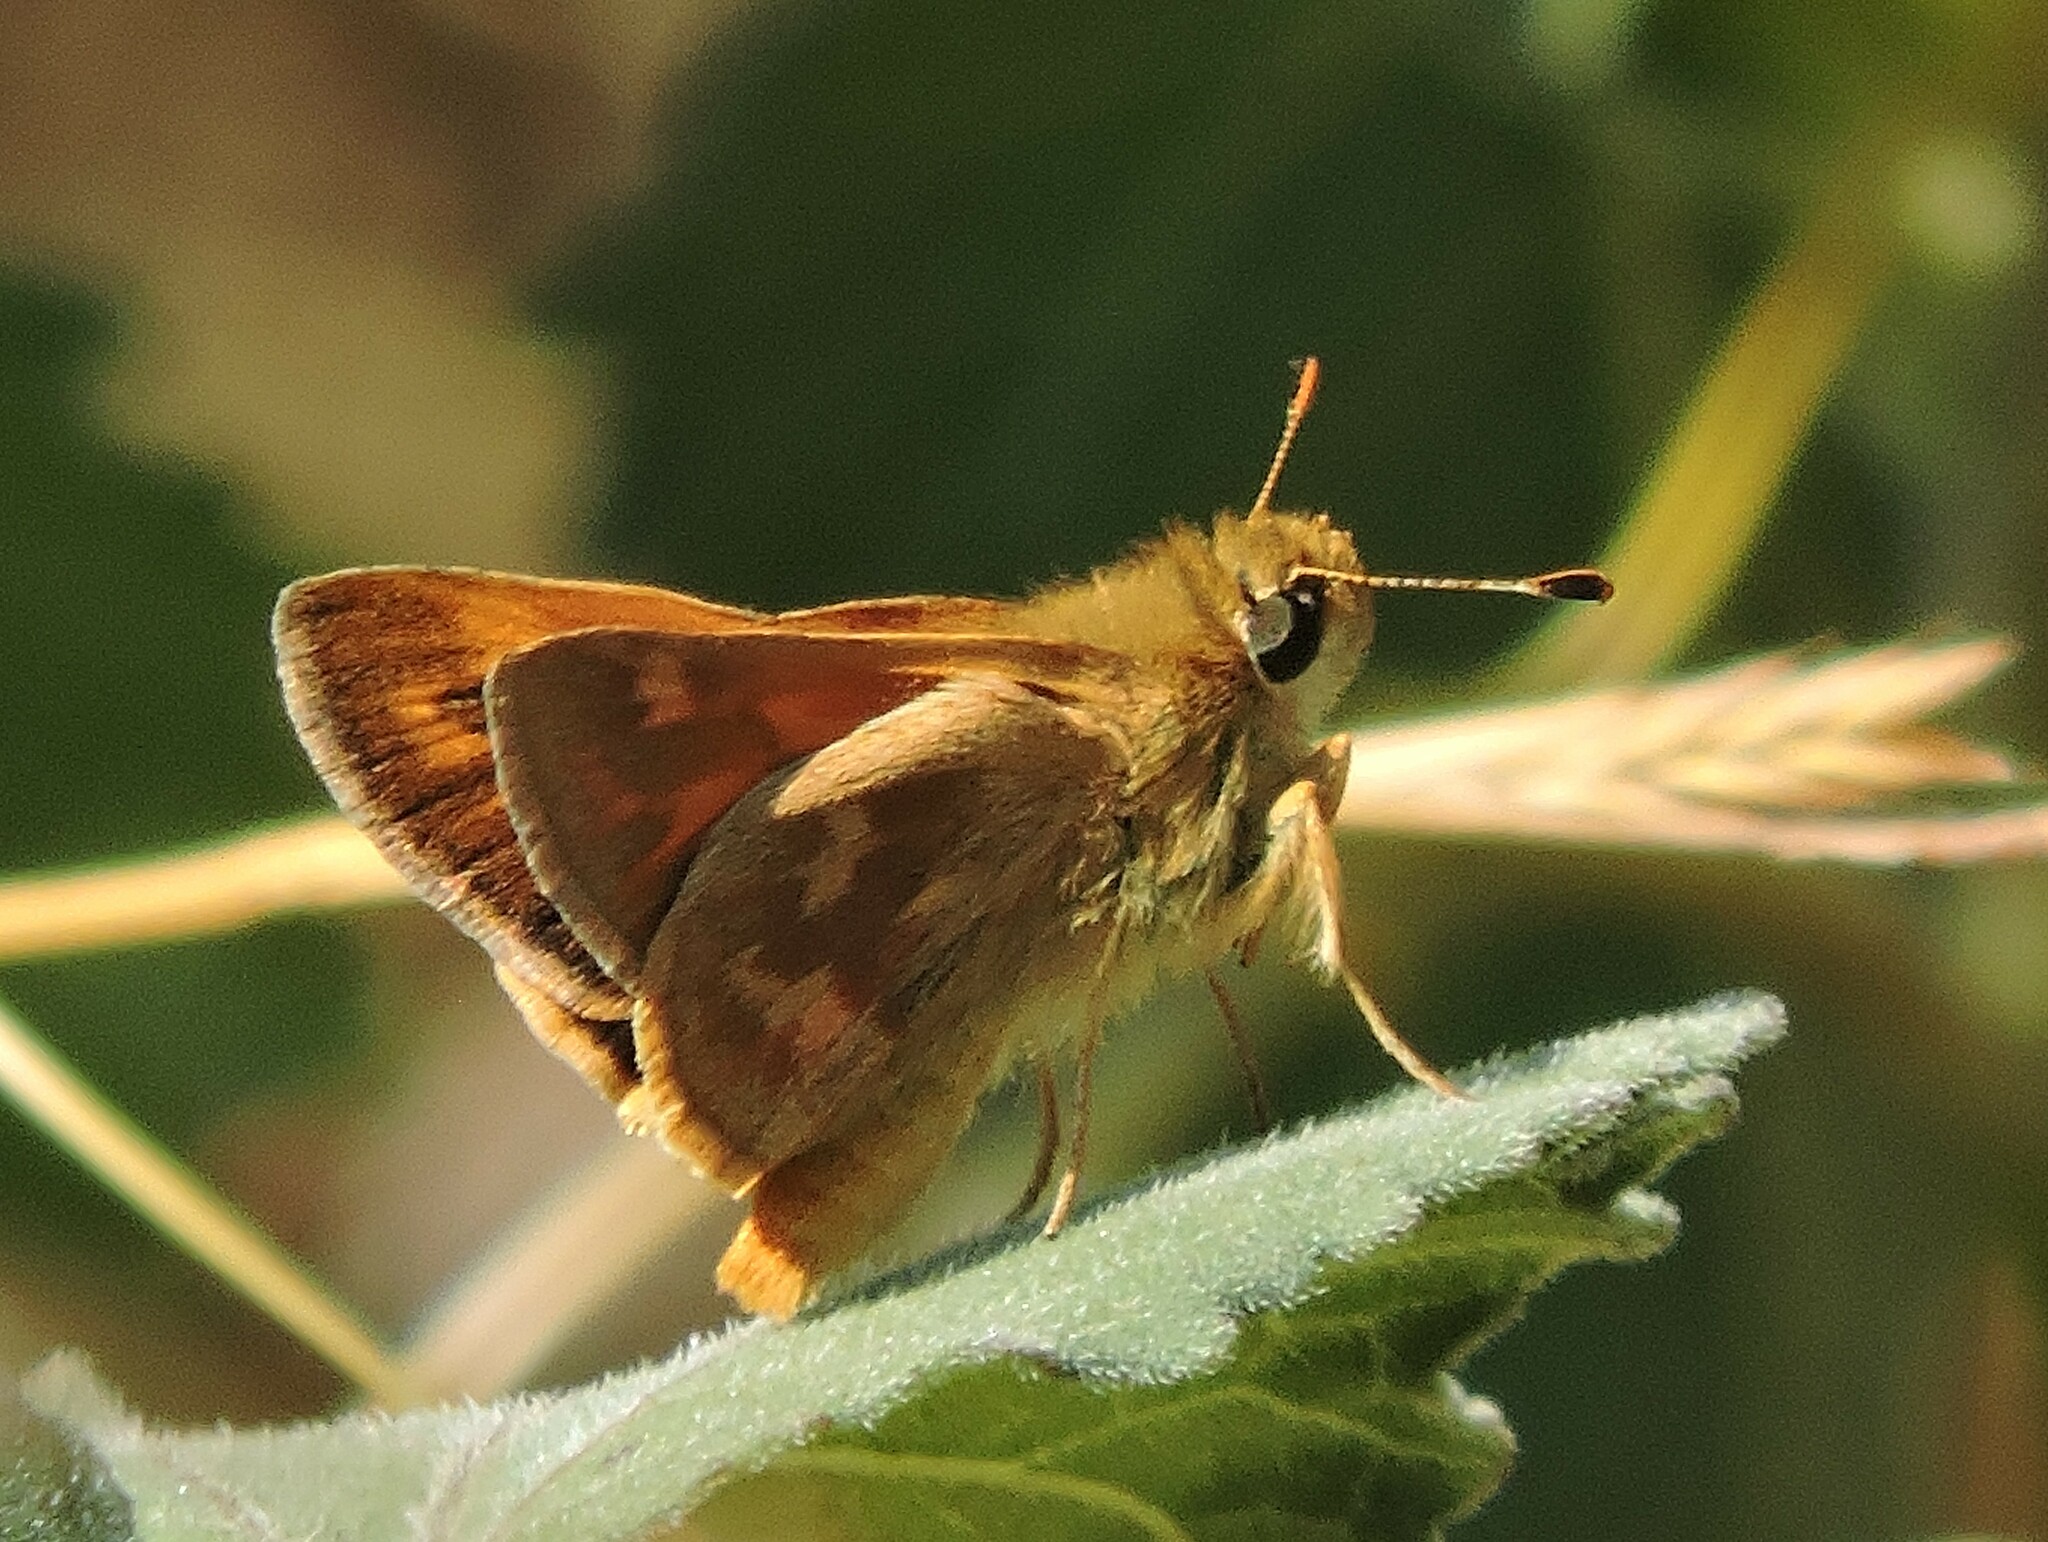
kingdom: Animalia
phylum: Arthropoda
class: Insecta
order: Lepidoptera
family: Hesperiidae
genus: Ochlodes
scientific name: Ochlodes sylvanoides
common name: Woodland skipper
